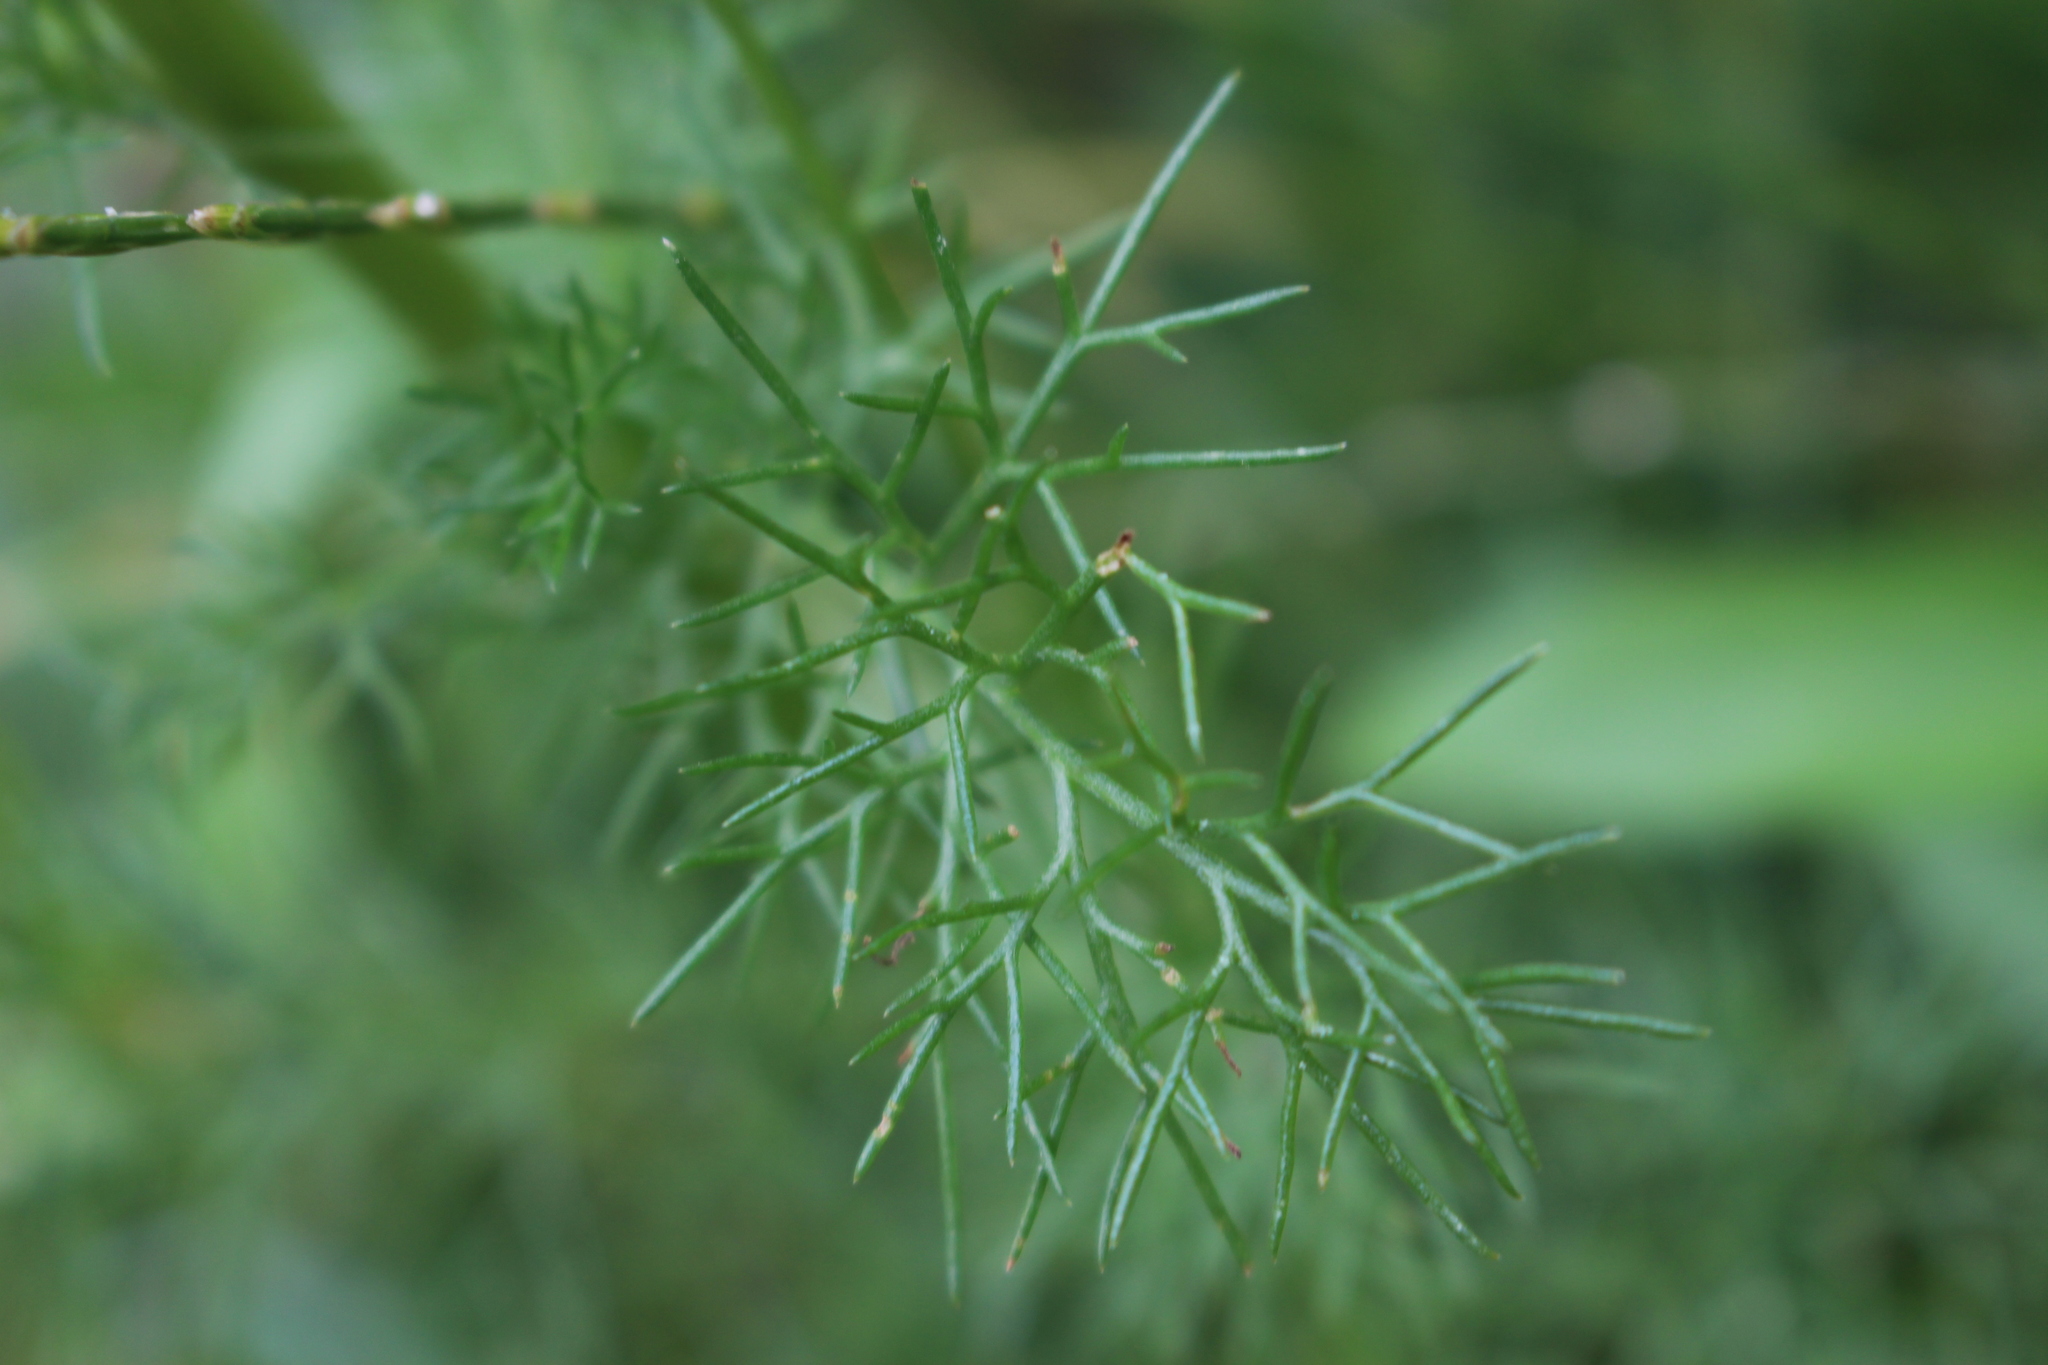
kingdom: Plantae
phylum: Tracheophyta
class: Magnoliopsida
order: Asterales
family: Asteraceae
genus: Tripleurospermum
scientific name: Tripleurospermum inodorum
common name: Scentless mayweed
